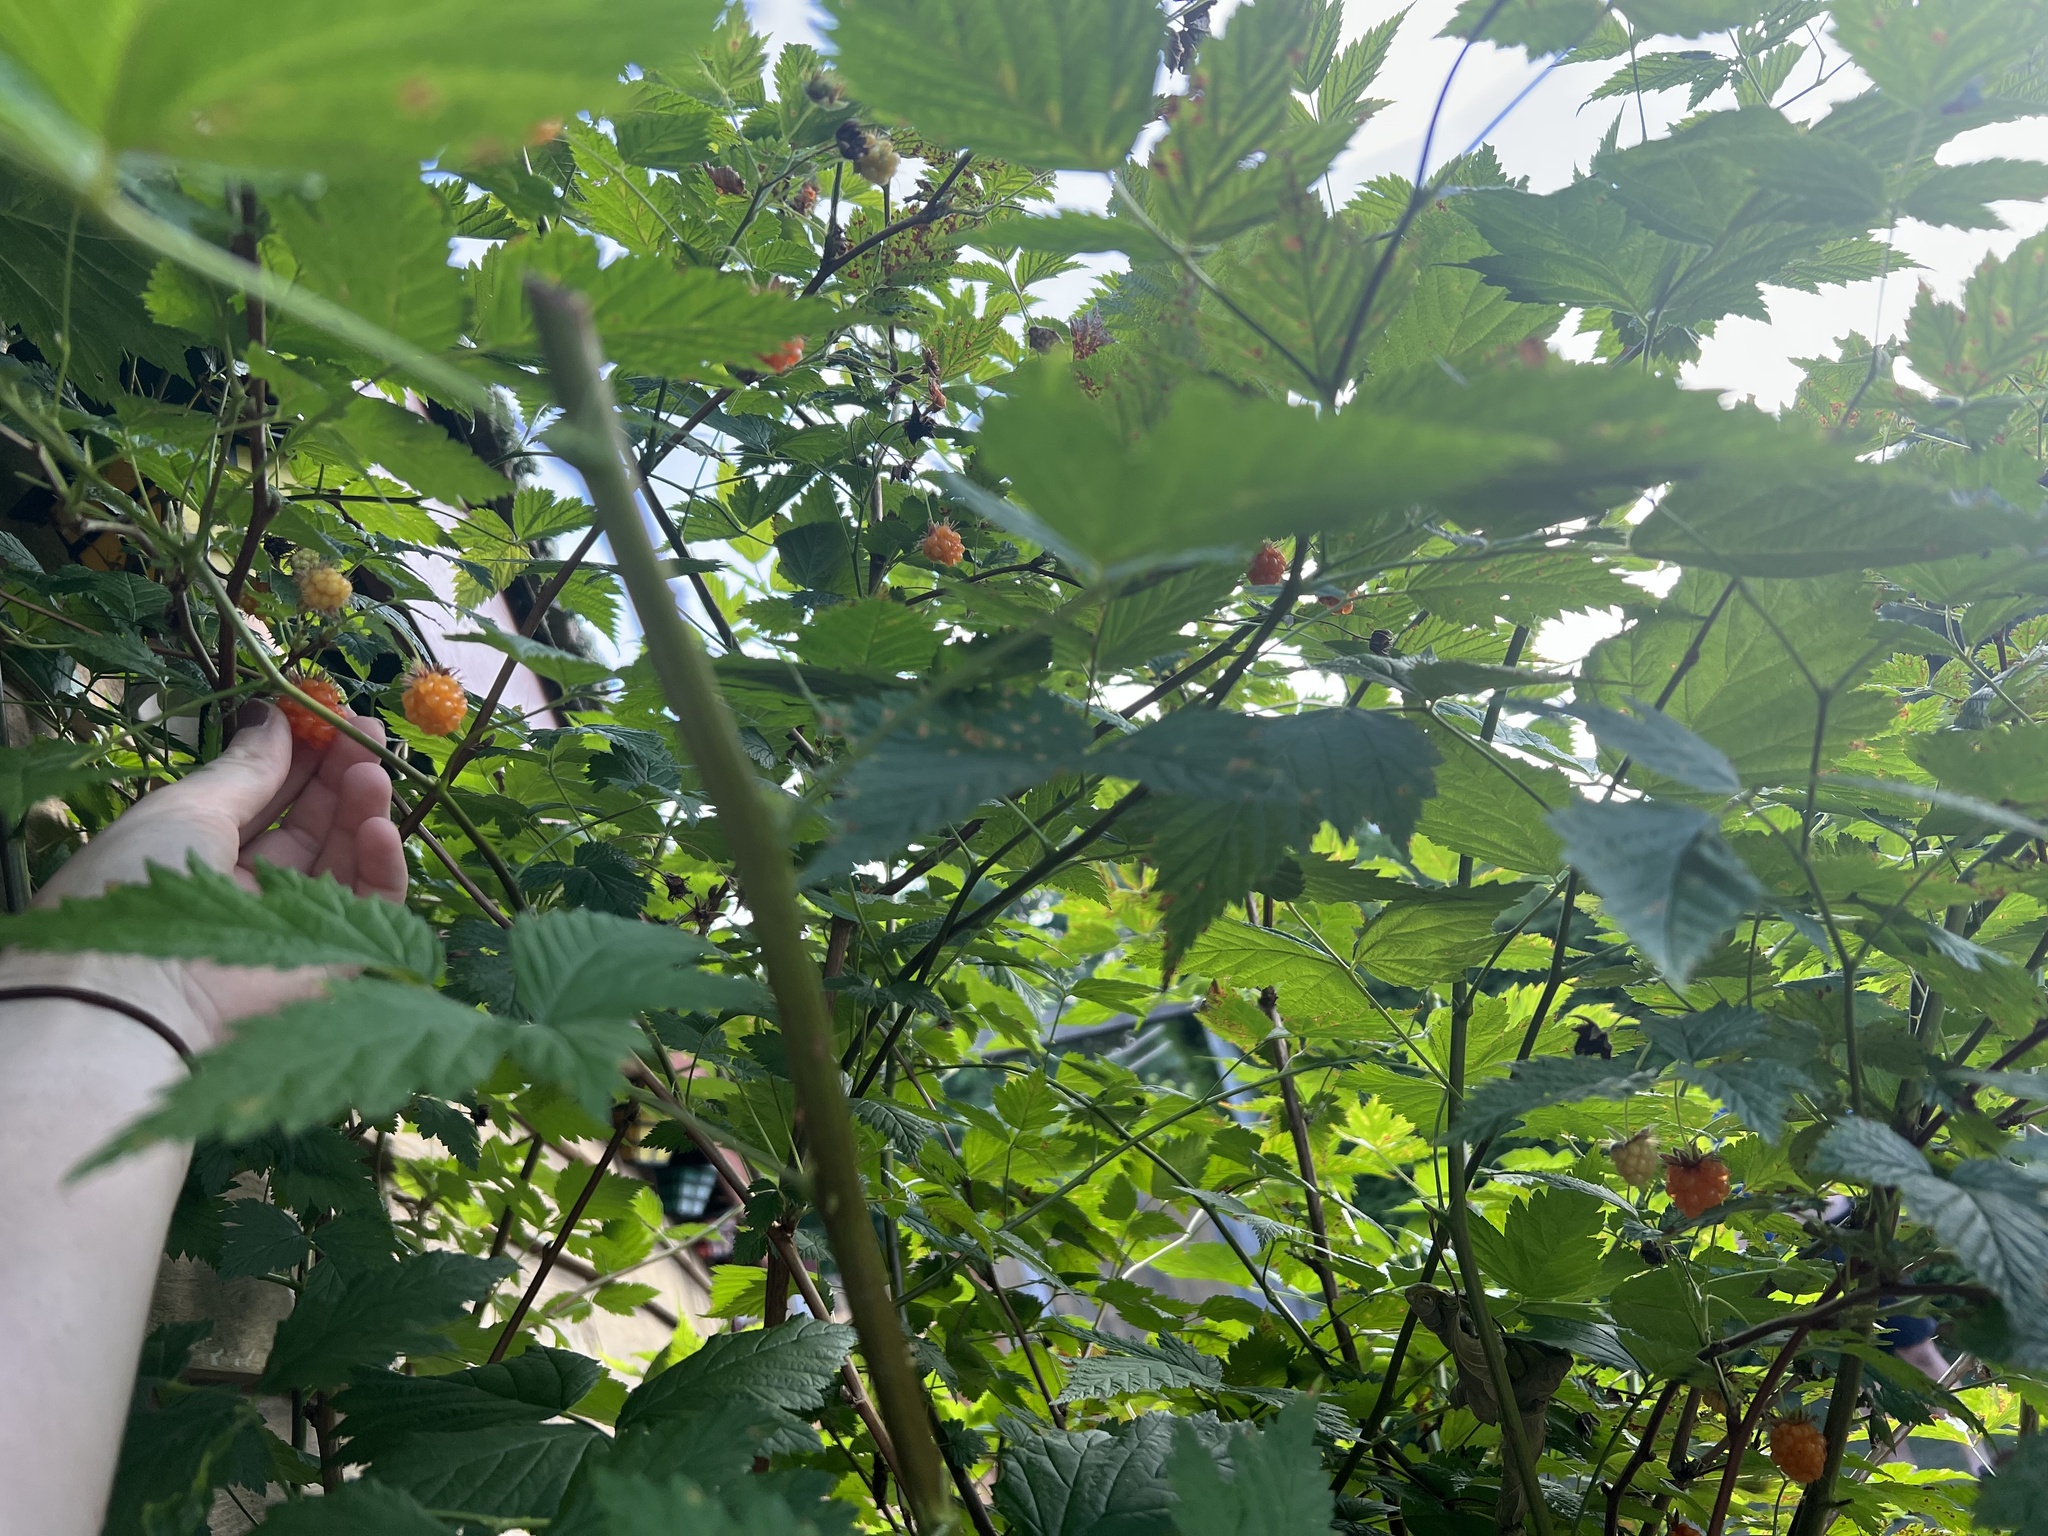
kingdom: Plantae
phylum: Tracheophyta
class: Magnoliopsida
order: Rosales
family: Rosaceae
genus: Rubus
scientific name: Rubus spectabilis
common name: Salmonberry
